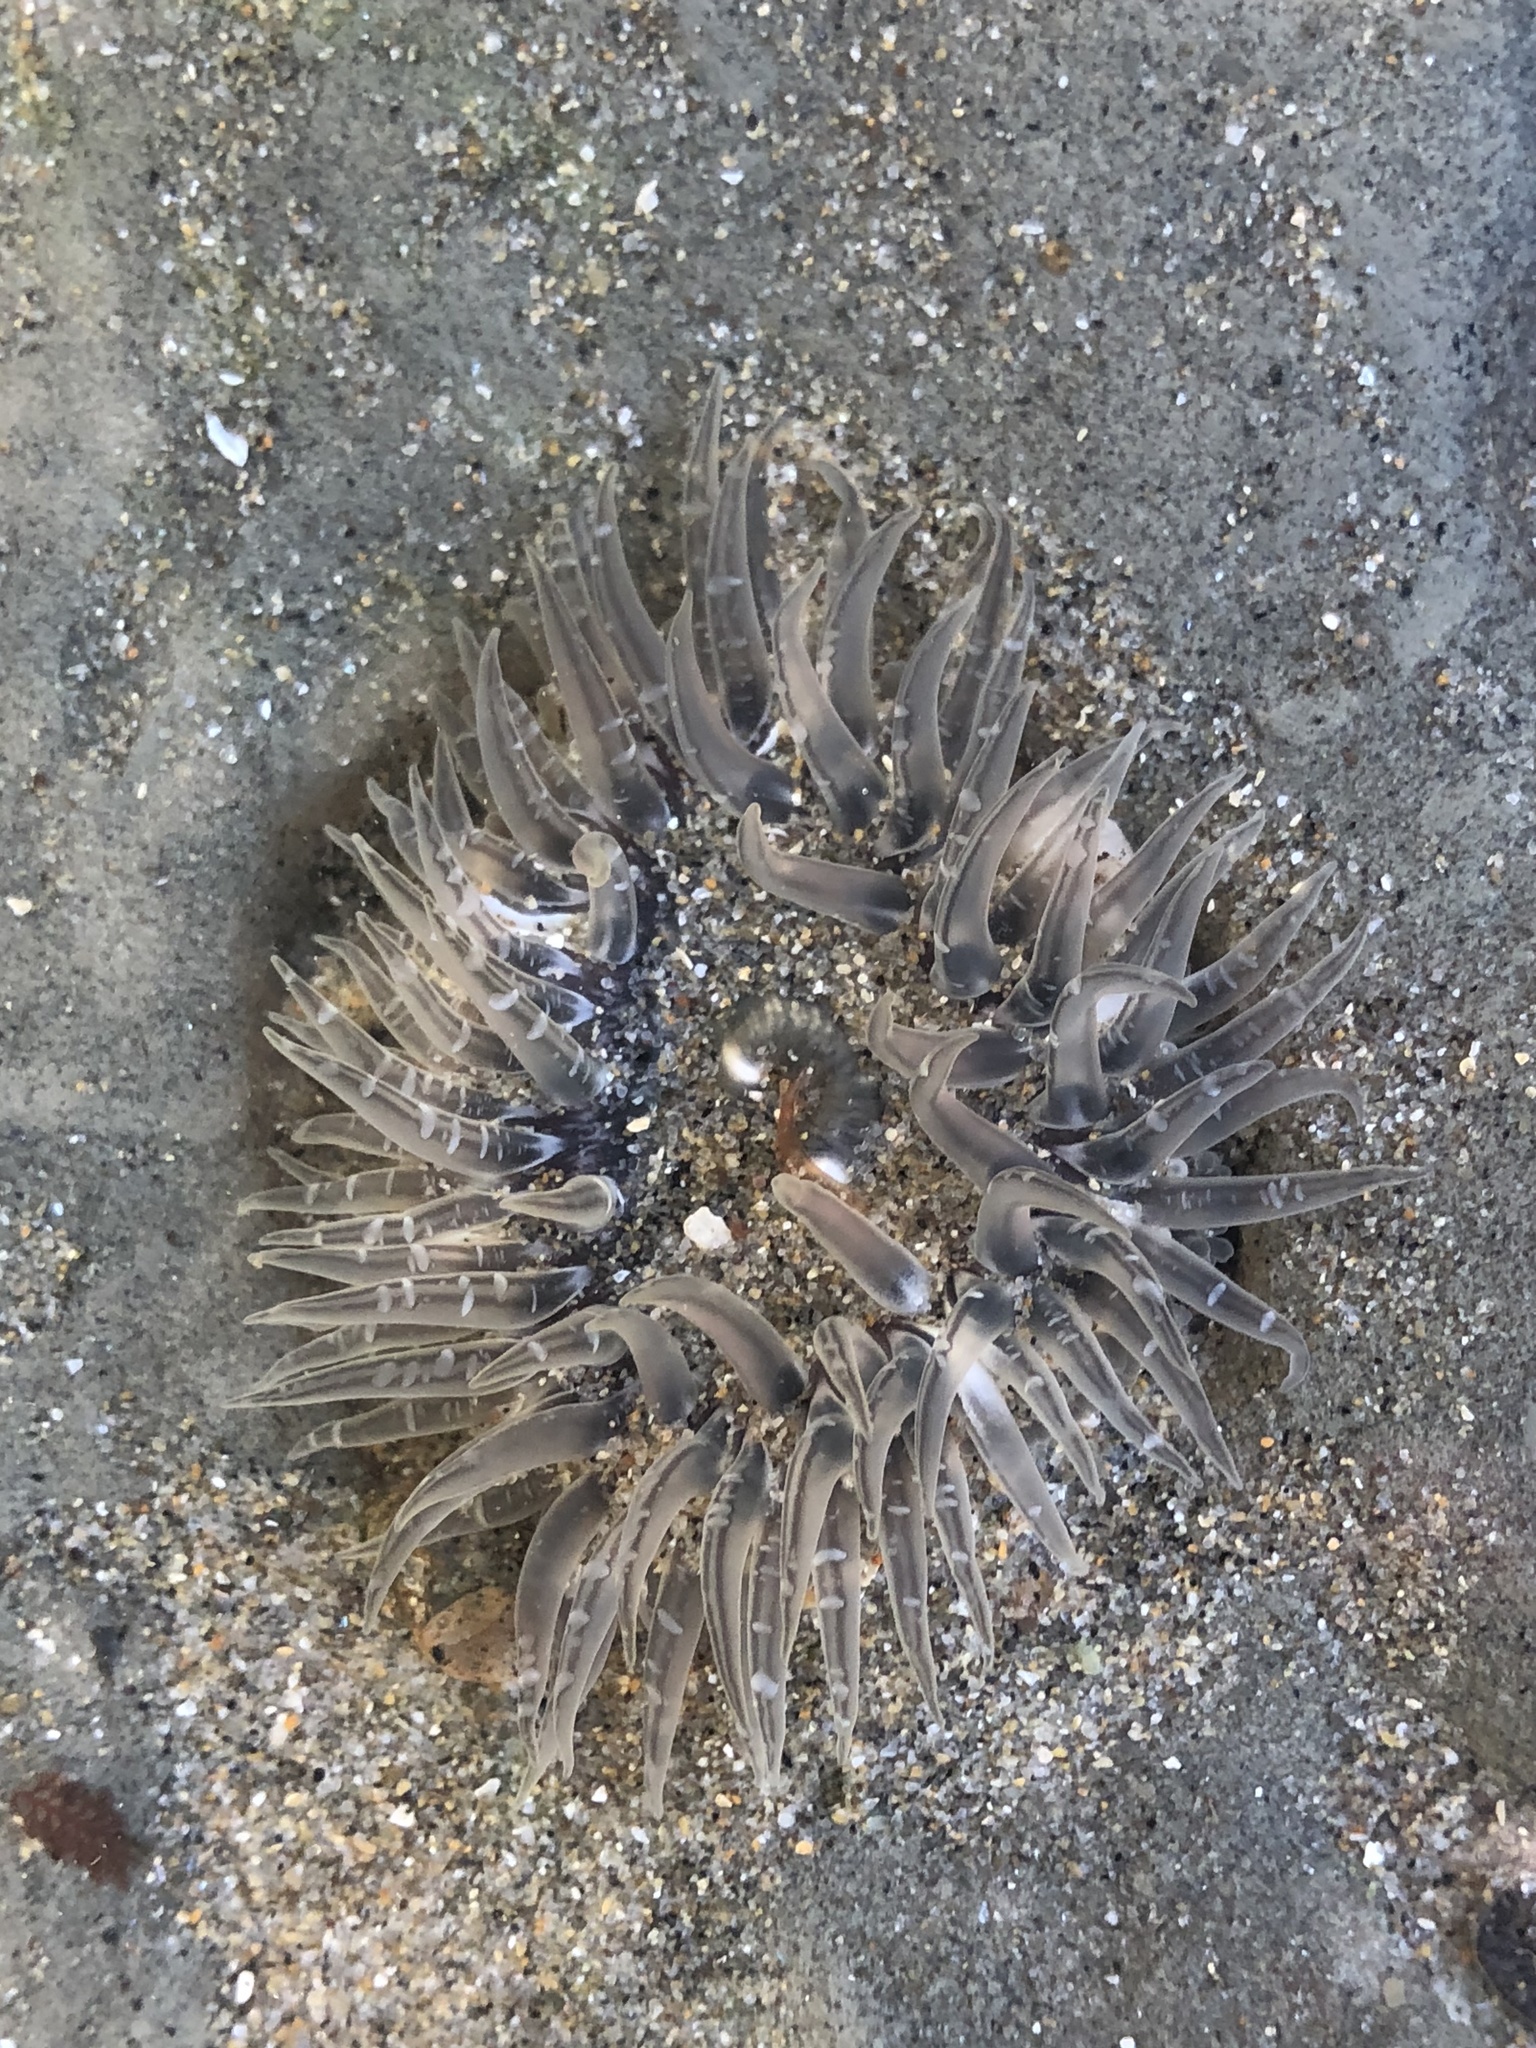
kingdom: Animalia
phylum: Cnidaria
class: Anthozoa
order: Actiniaria
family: Actiniidae
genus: Anthopleura
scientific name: Anthopleura artemisia
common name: Buried sea anemone
